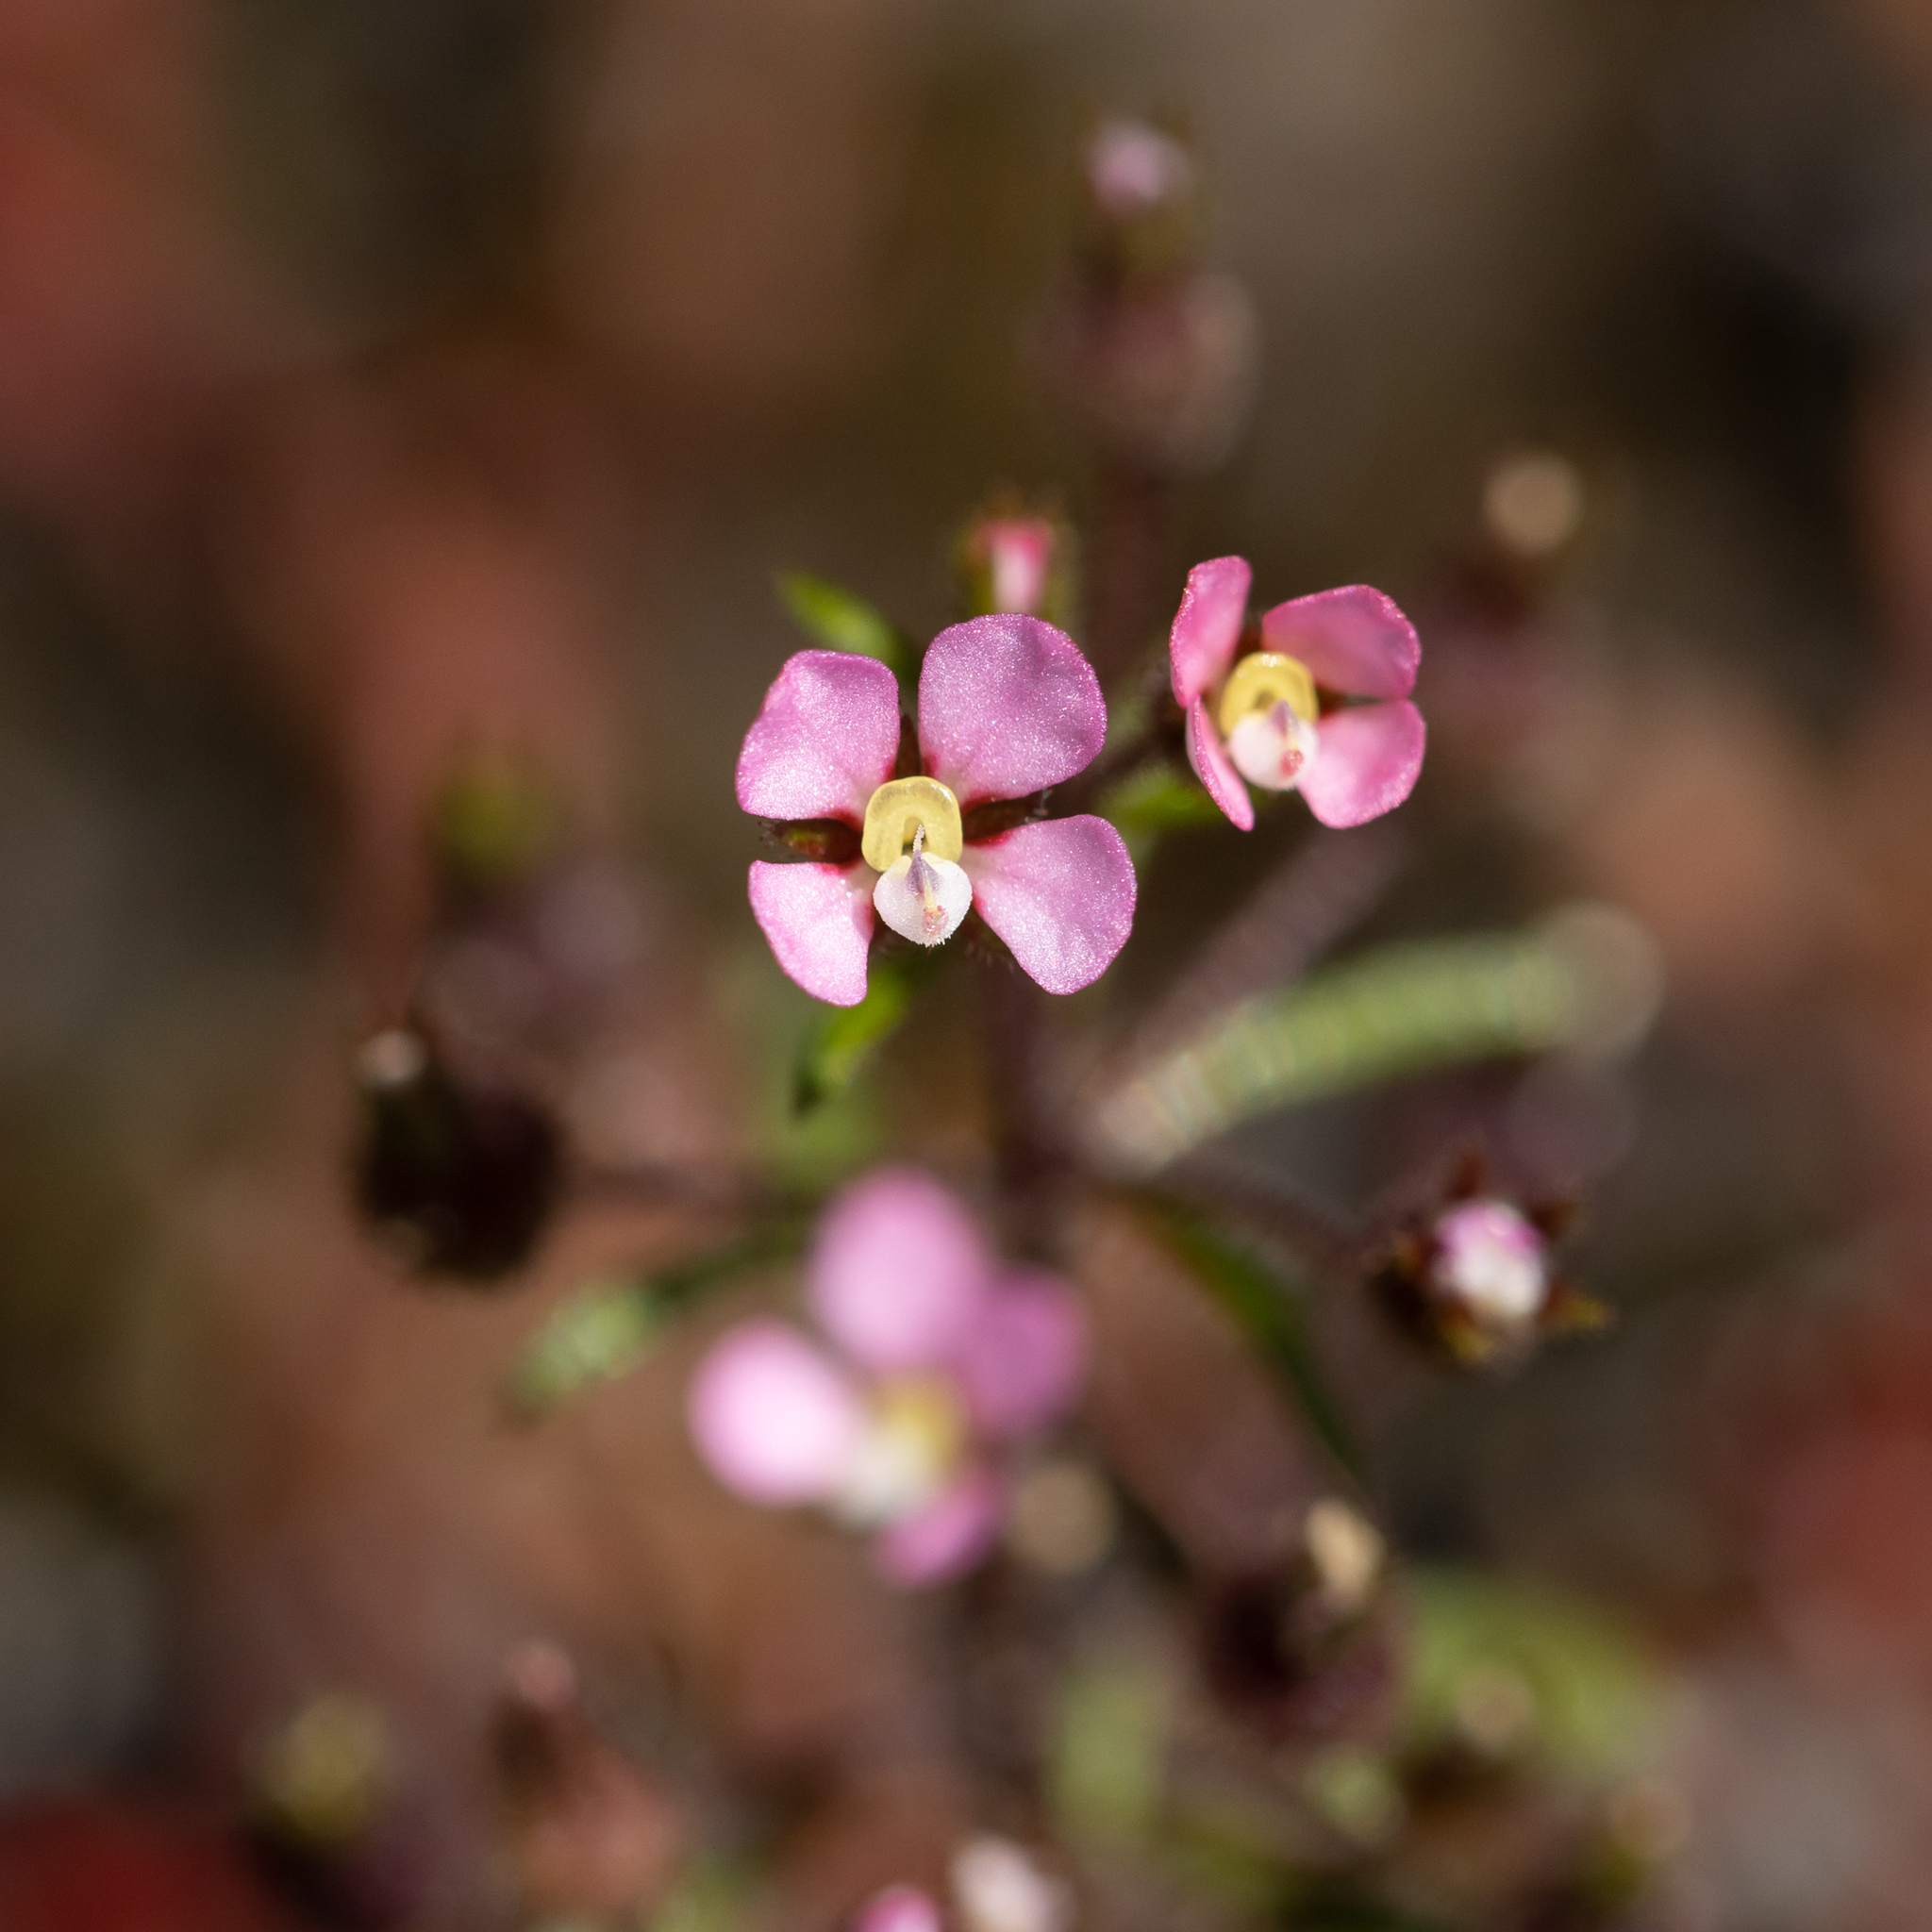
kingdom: Plantae
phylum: Tracheophyta
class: Magnoliopsida
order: Asterales
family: Stylidiaceae
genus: Levenhookia
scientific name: Levenhookia stipitata
